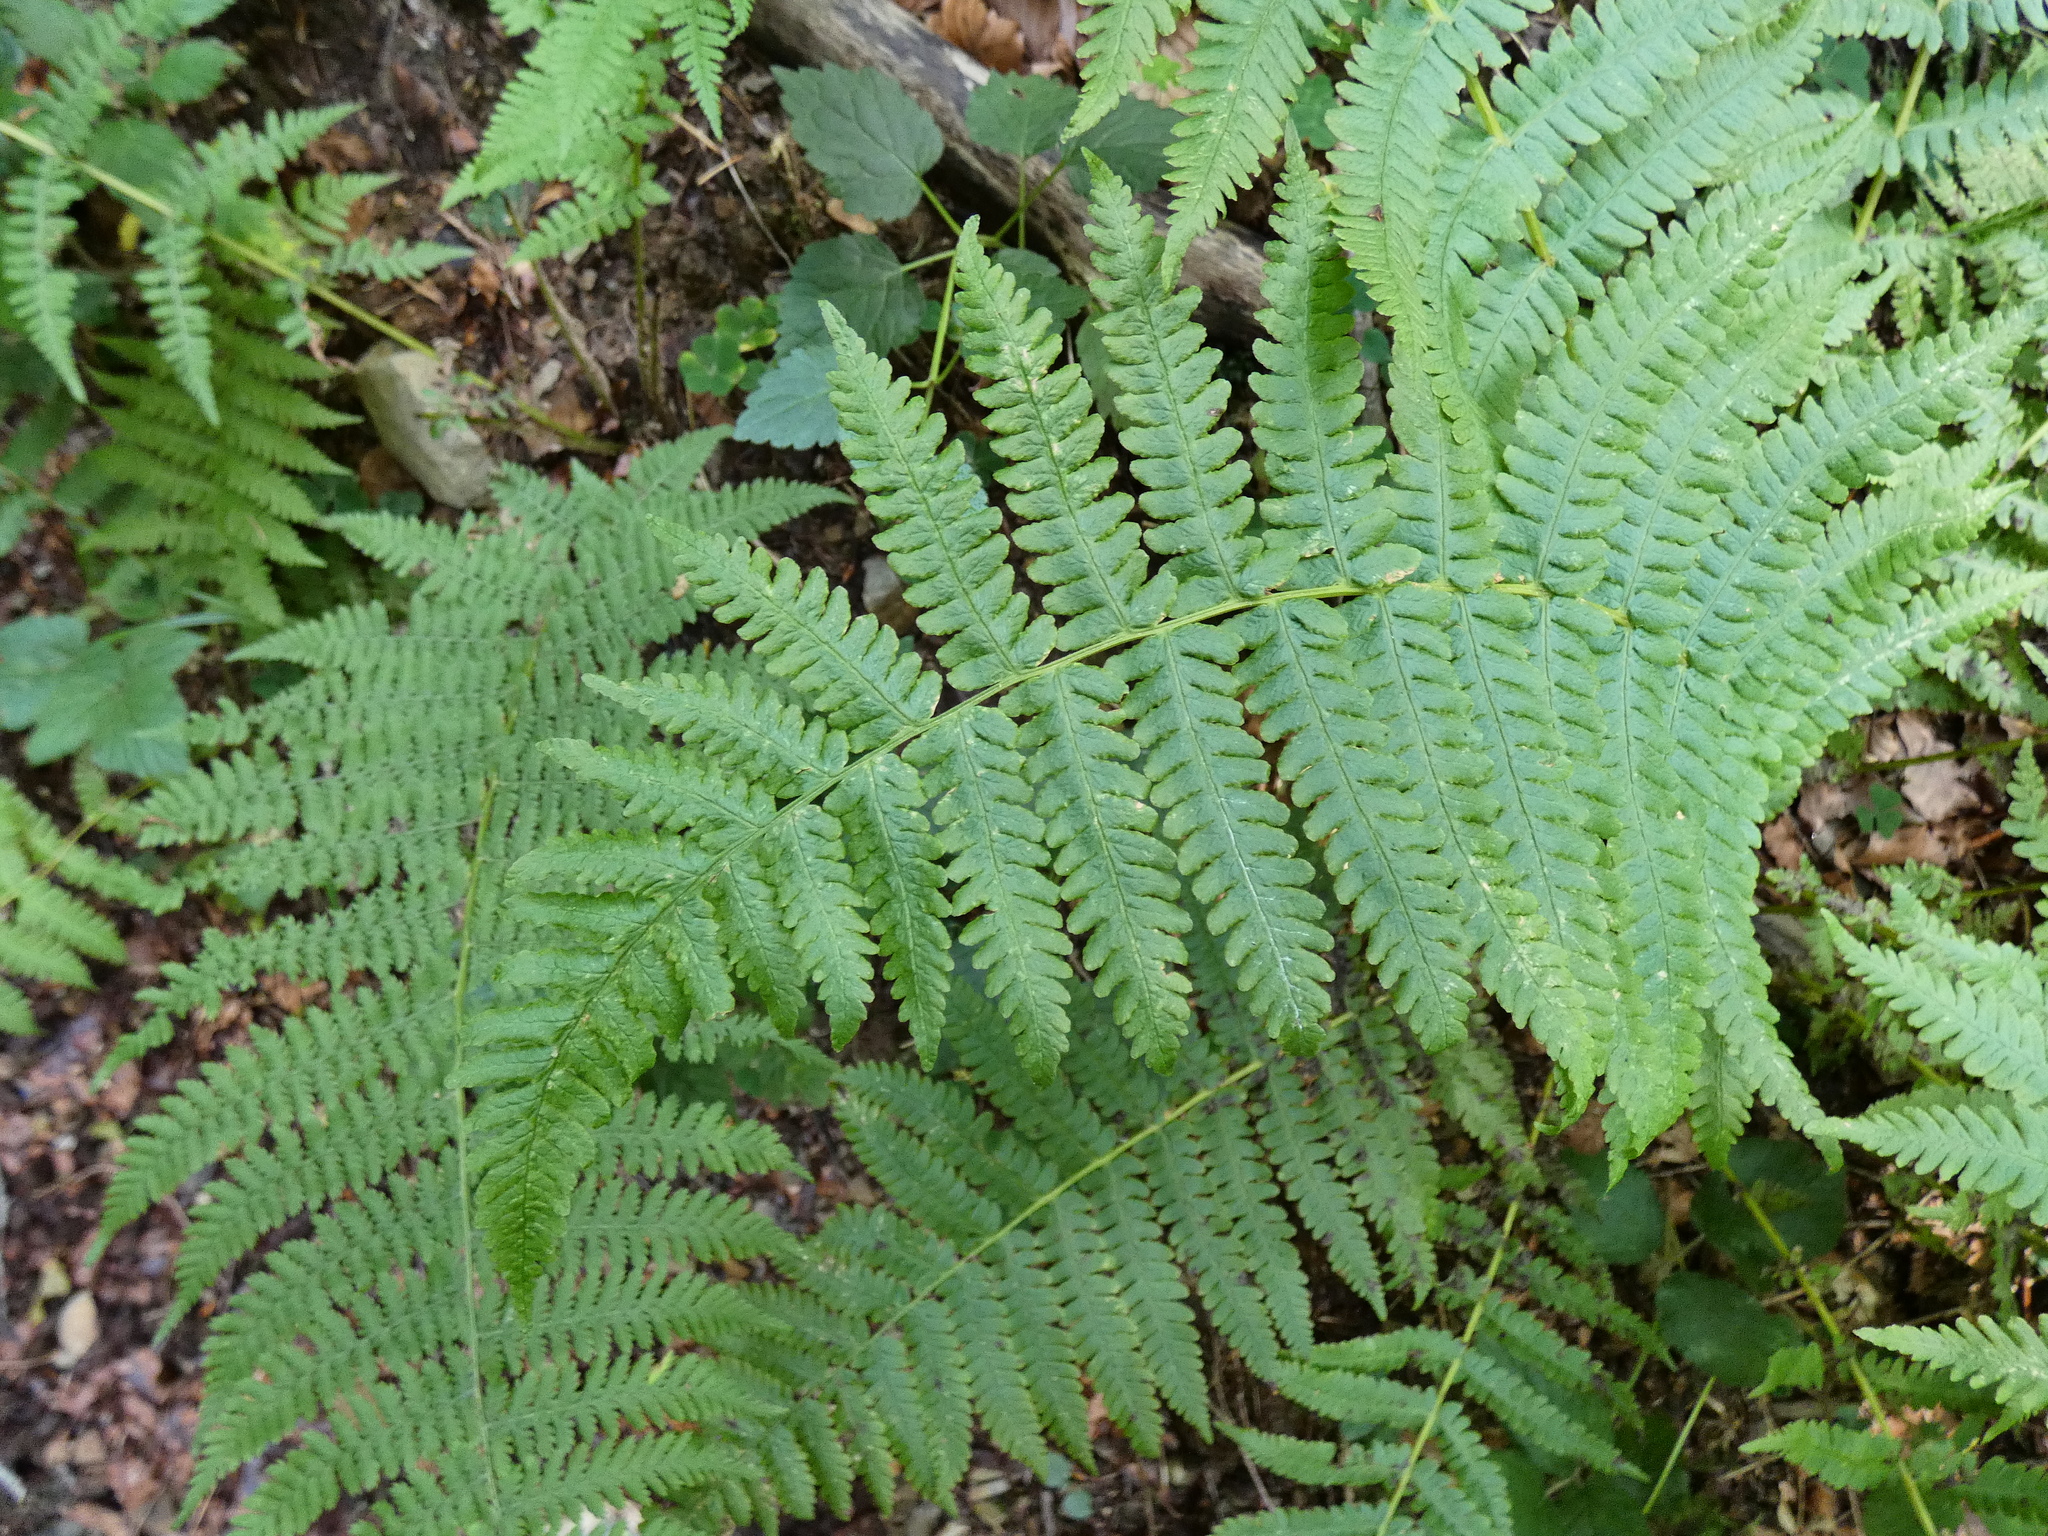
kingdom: Plantae
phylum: Tracheophyta
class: Polypodiopsida
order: Polypodiales
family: Thelypteridaceae
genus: Oreopteris
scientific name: Oreopteris limbosperma
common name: Lemon-scented fern
